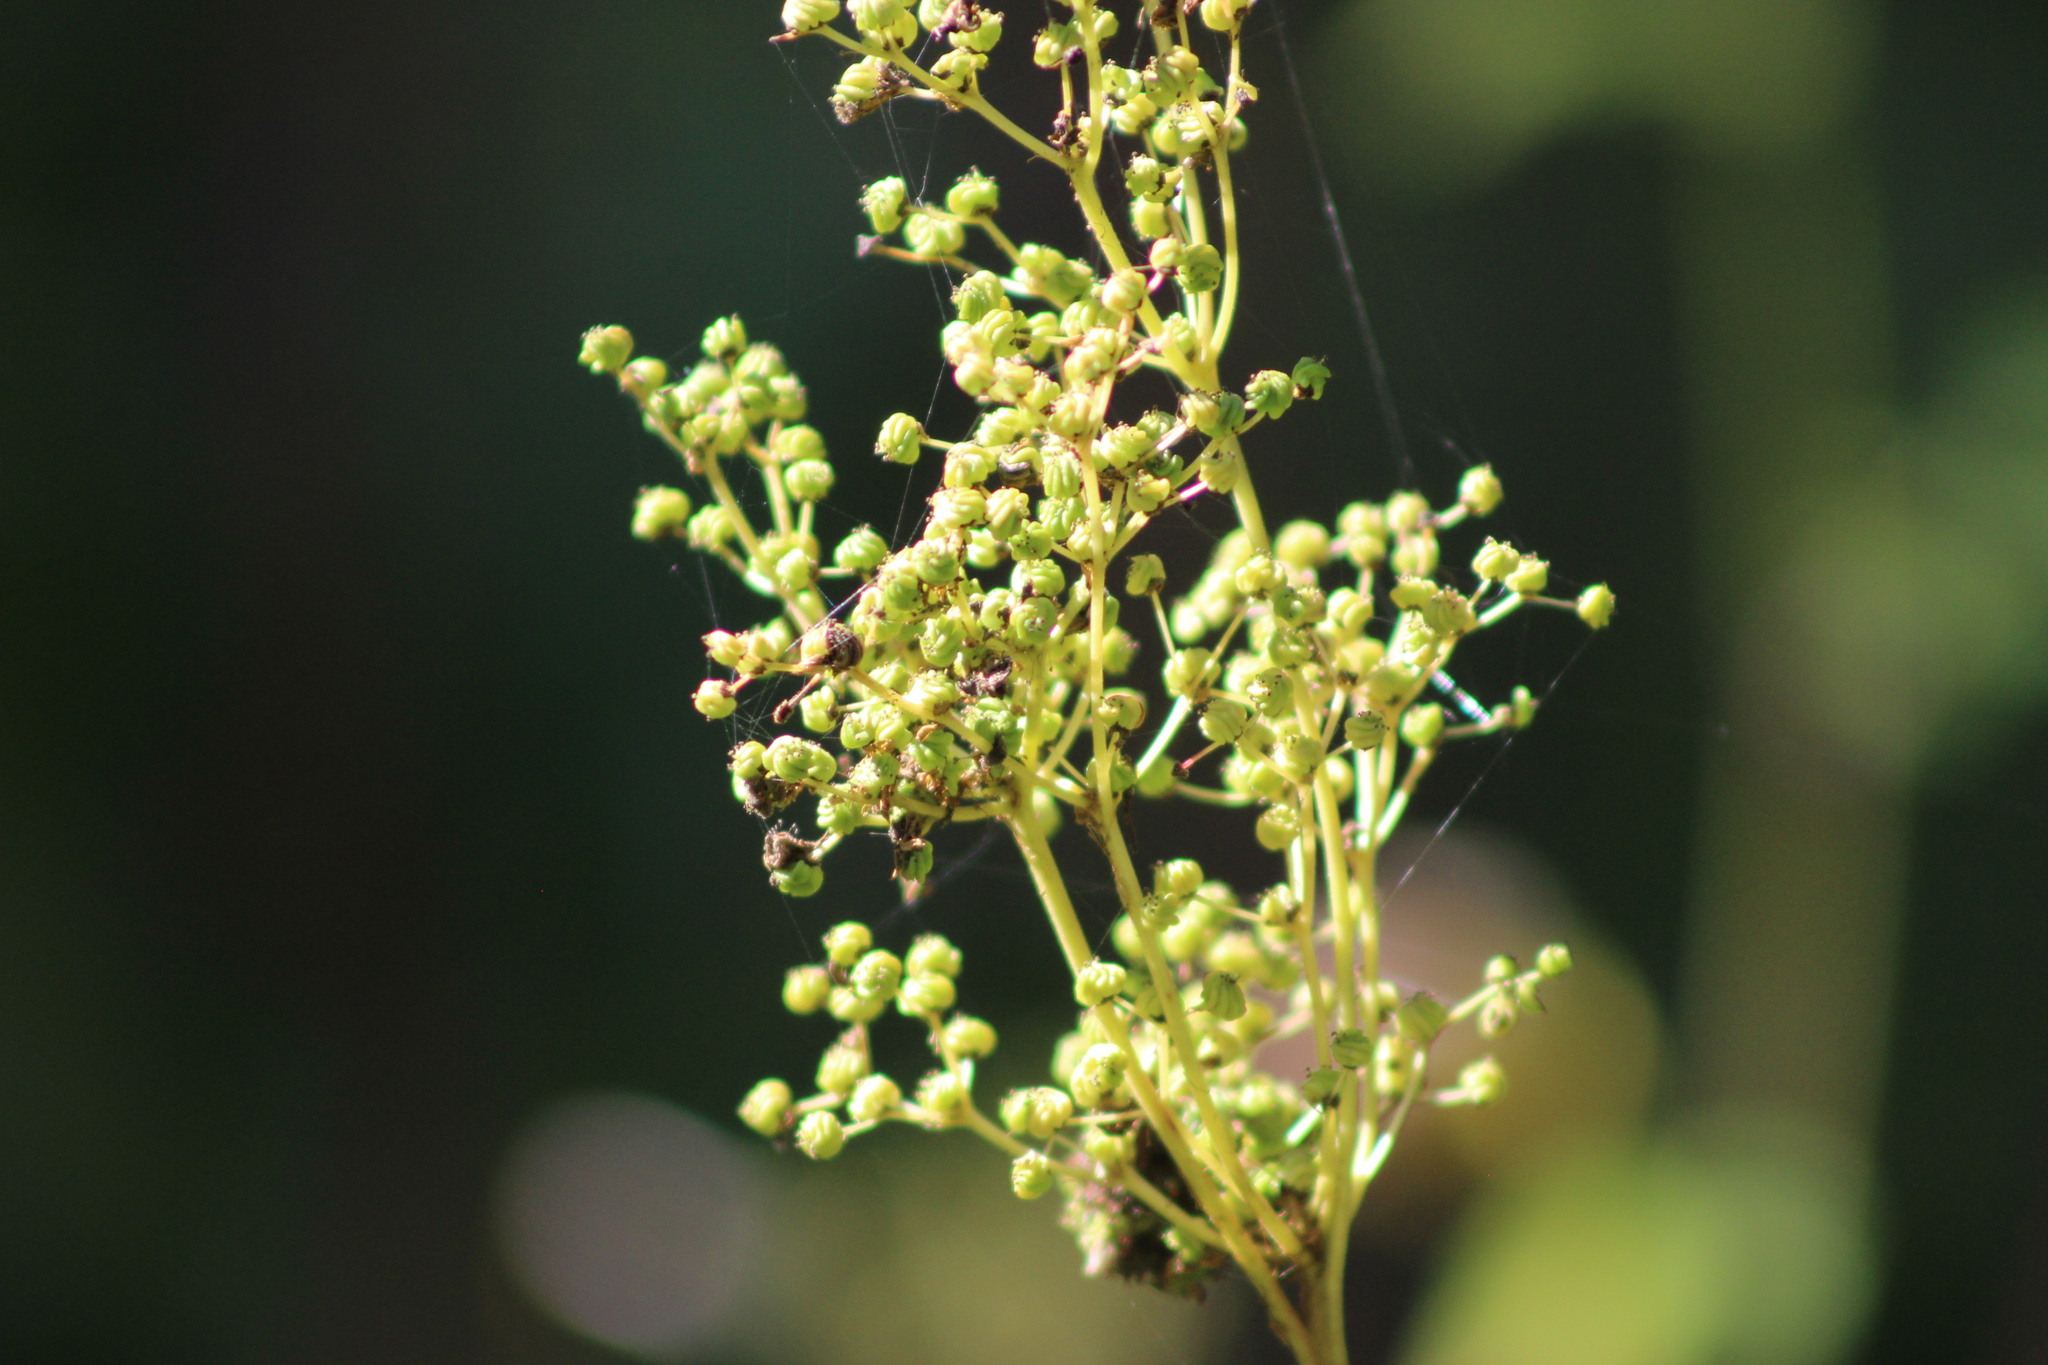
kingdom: Plantae
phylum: Tracheophyta
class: Magnoliopsida
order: Rosales
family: Rosaceae
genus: Filipendula
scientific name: Filipendula ulmaria
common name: Meadowsweet
